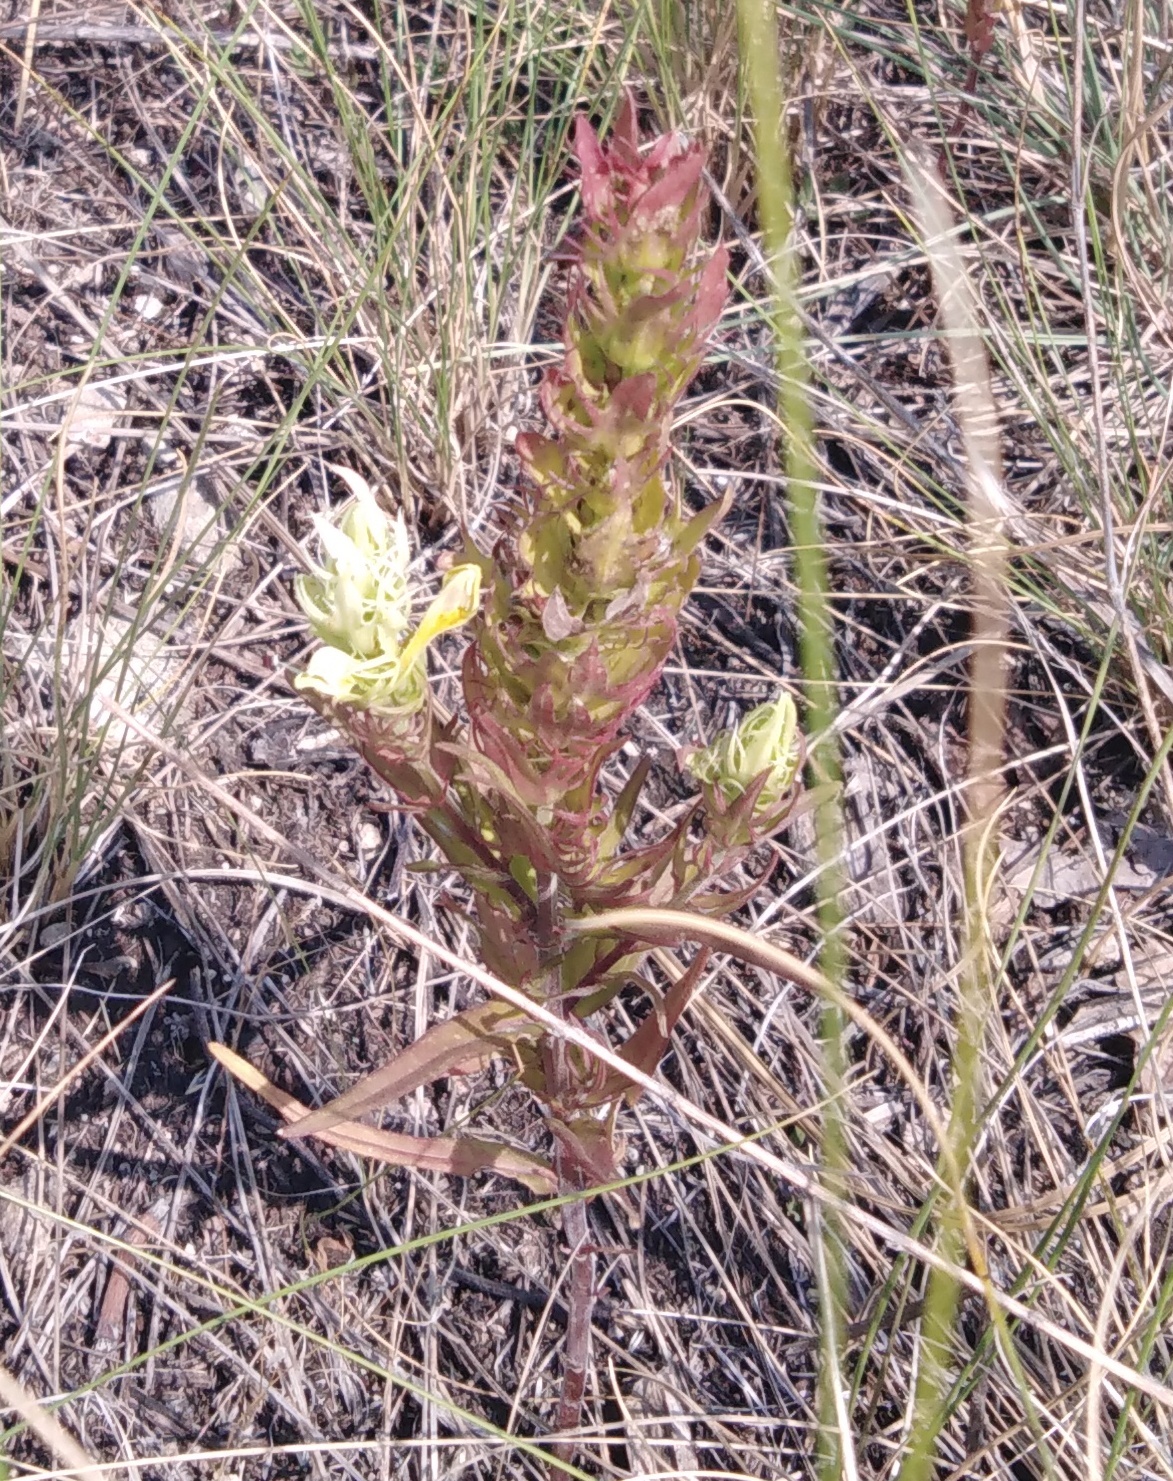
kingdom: Plantae
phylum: Tracheophyta
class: Magnoliopsida
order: Lamiales
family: Orobanchaceae
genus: Melampyrum
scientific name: Melampyrum arvense
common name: Field cow-wheat
